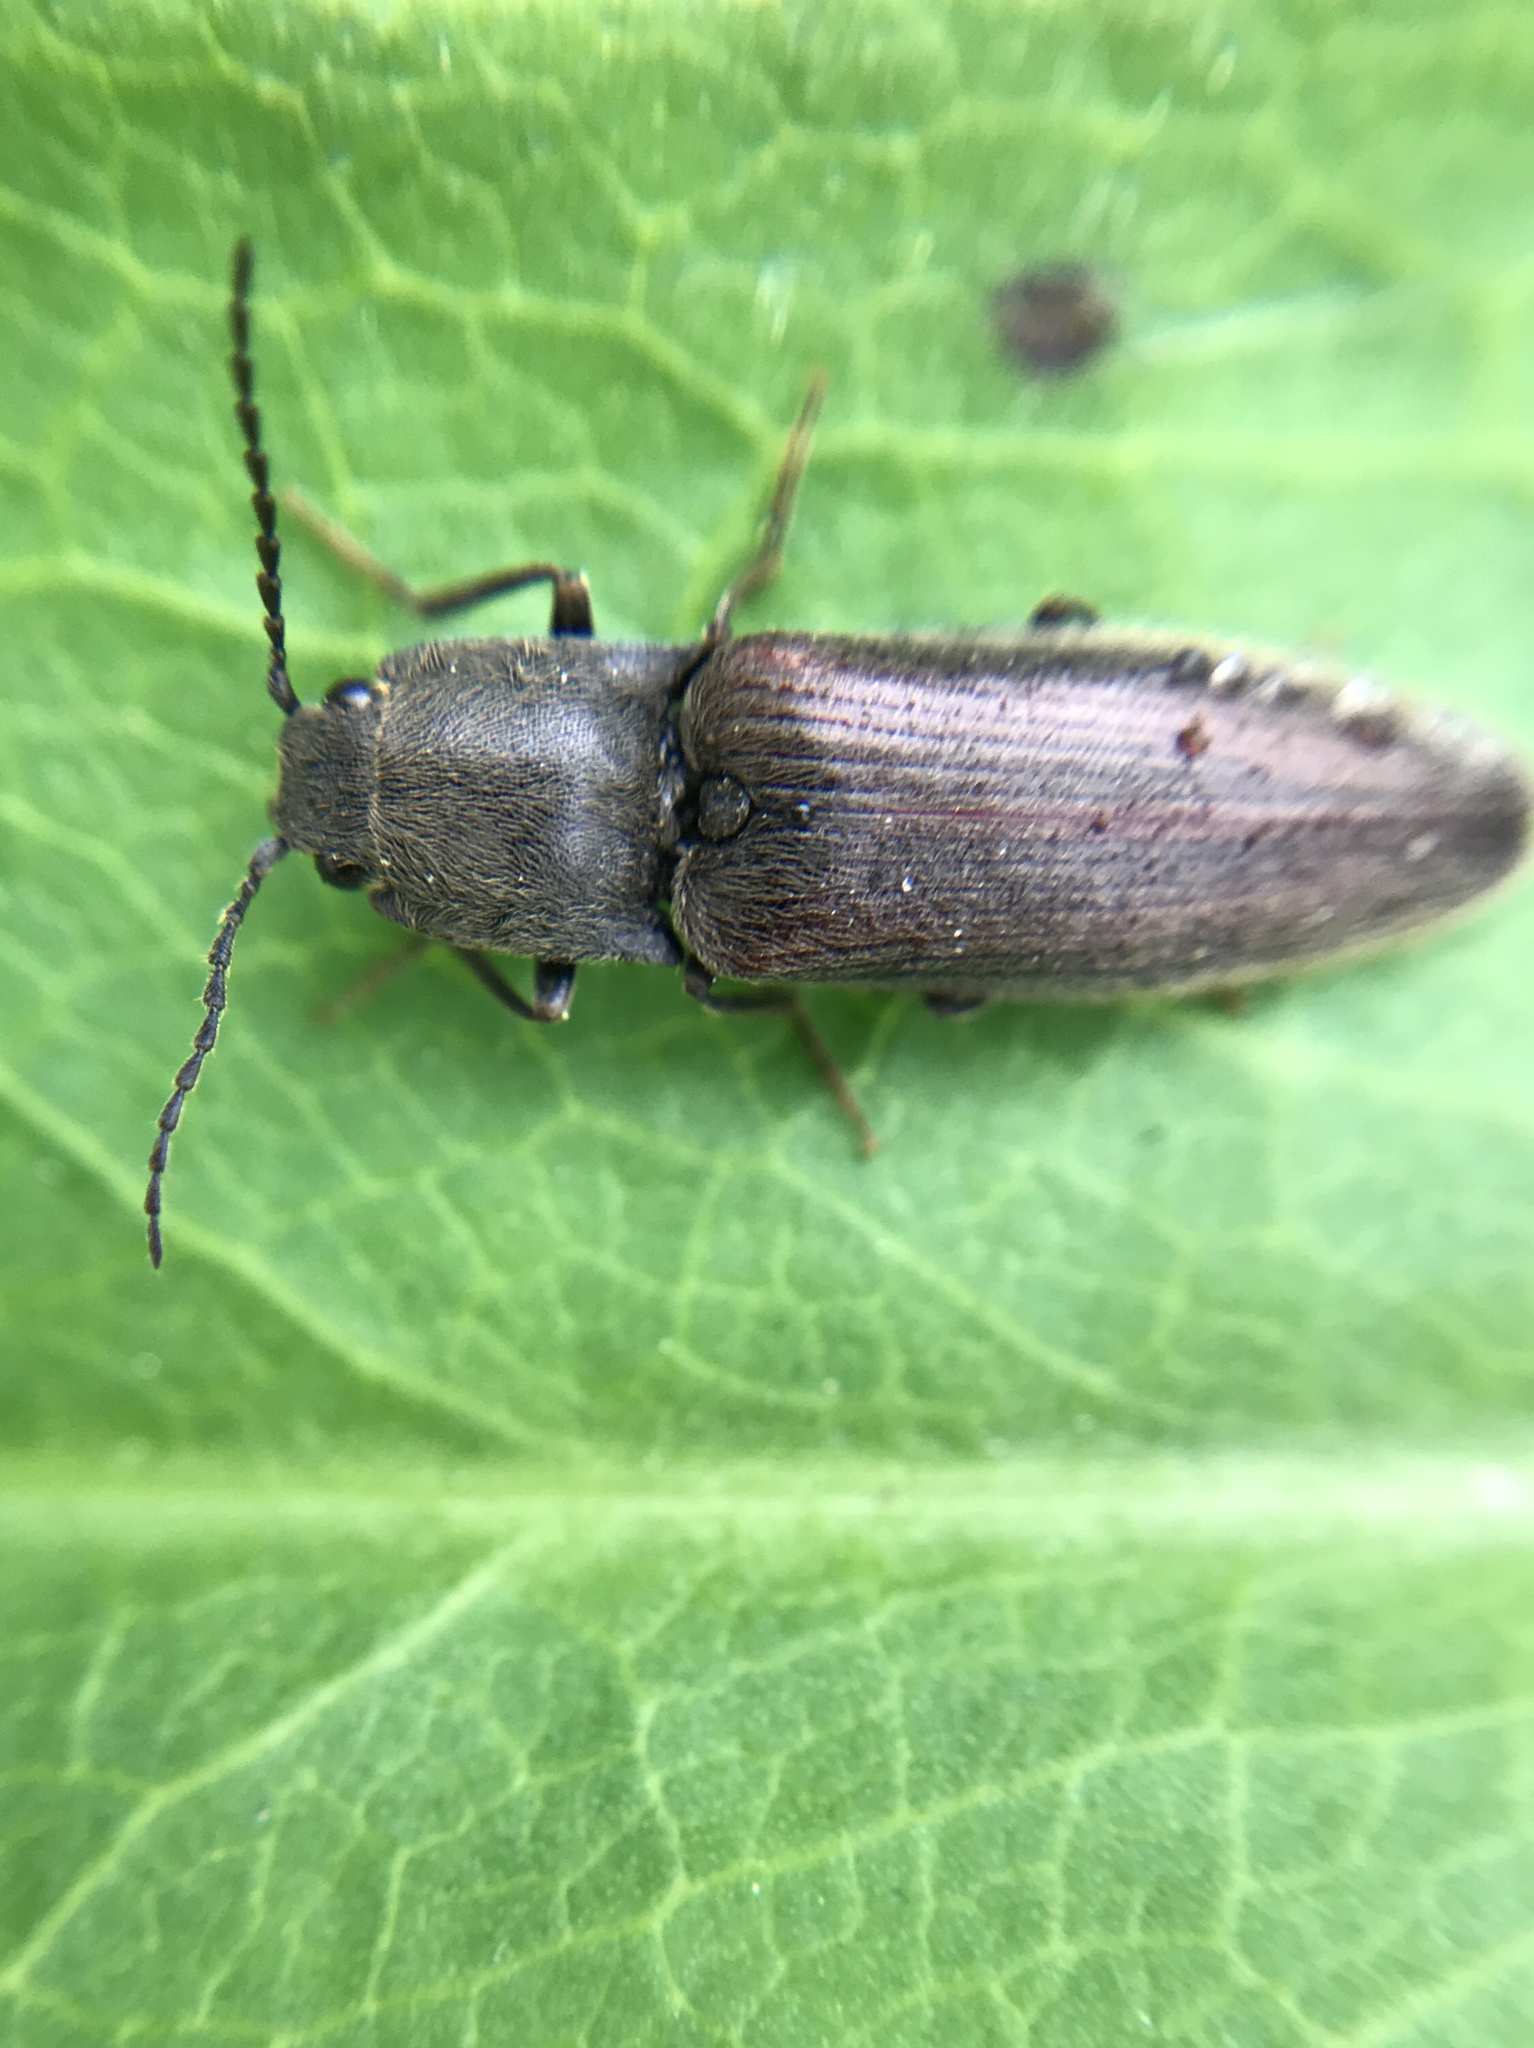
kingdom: Animalia
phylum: Arthropoda
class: Insecta
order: Coleoptera
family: Elateridae
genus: Athous
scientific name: Athous haemorrhoidalis
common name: Red-brown click beetle
